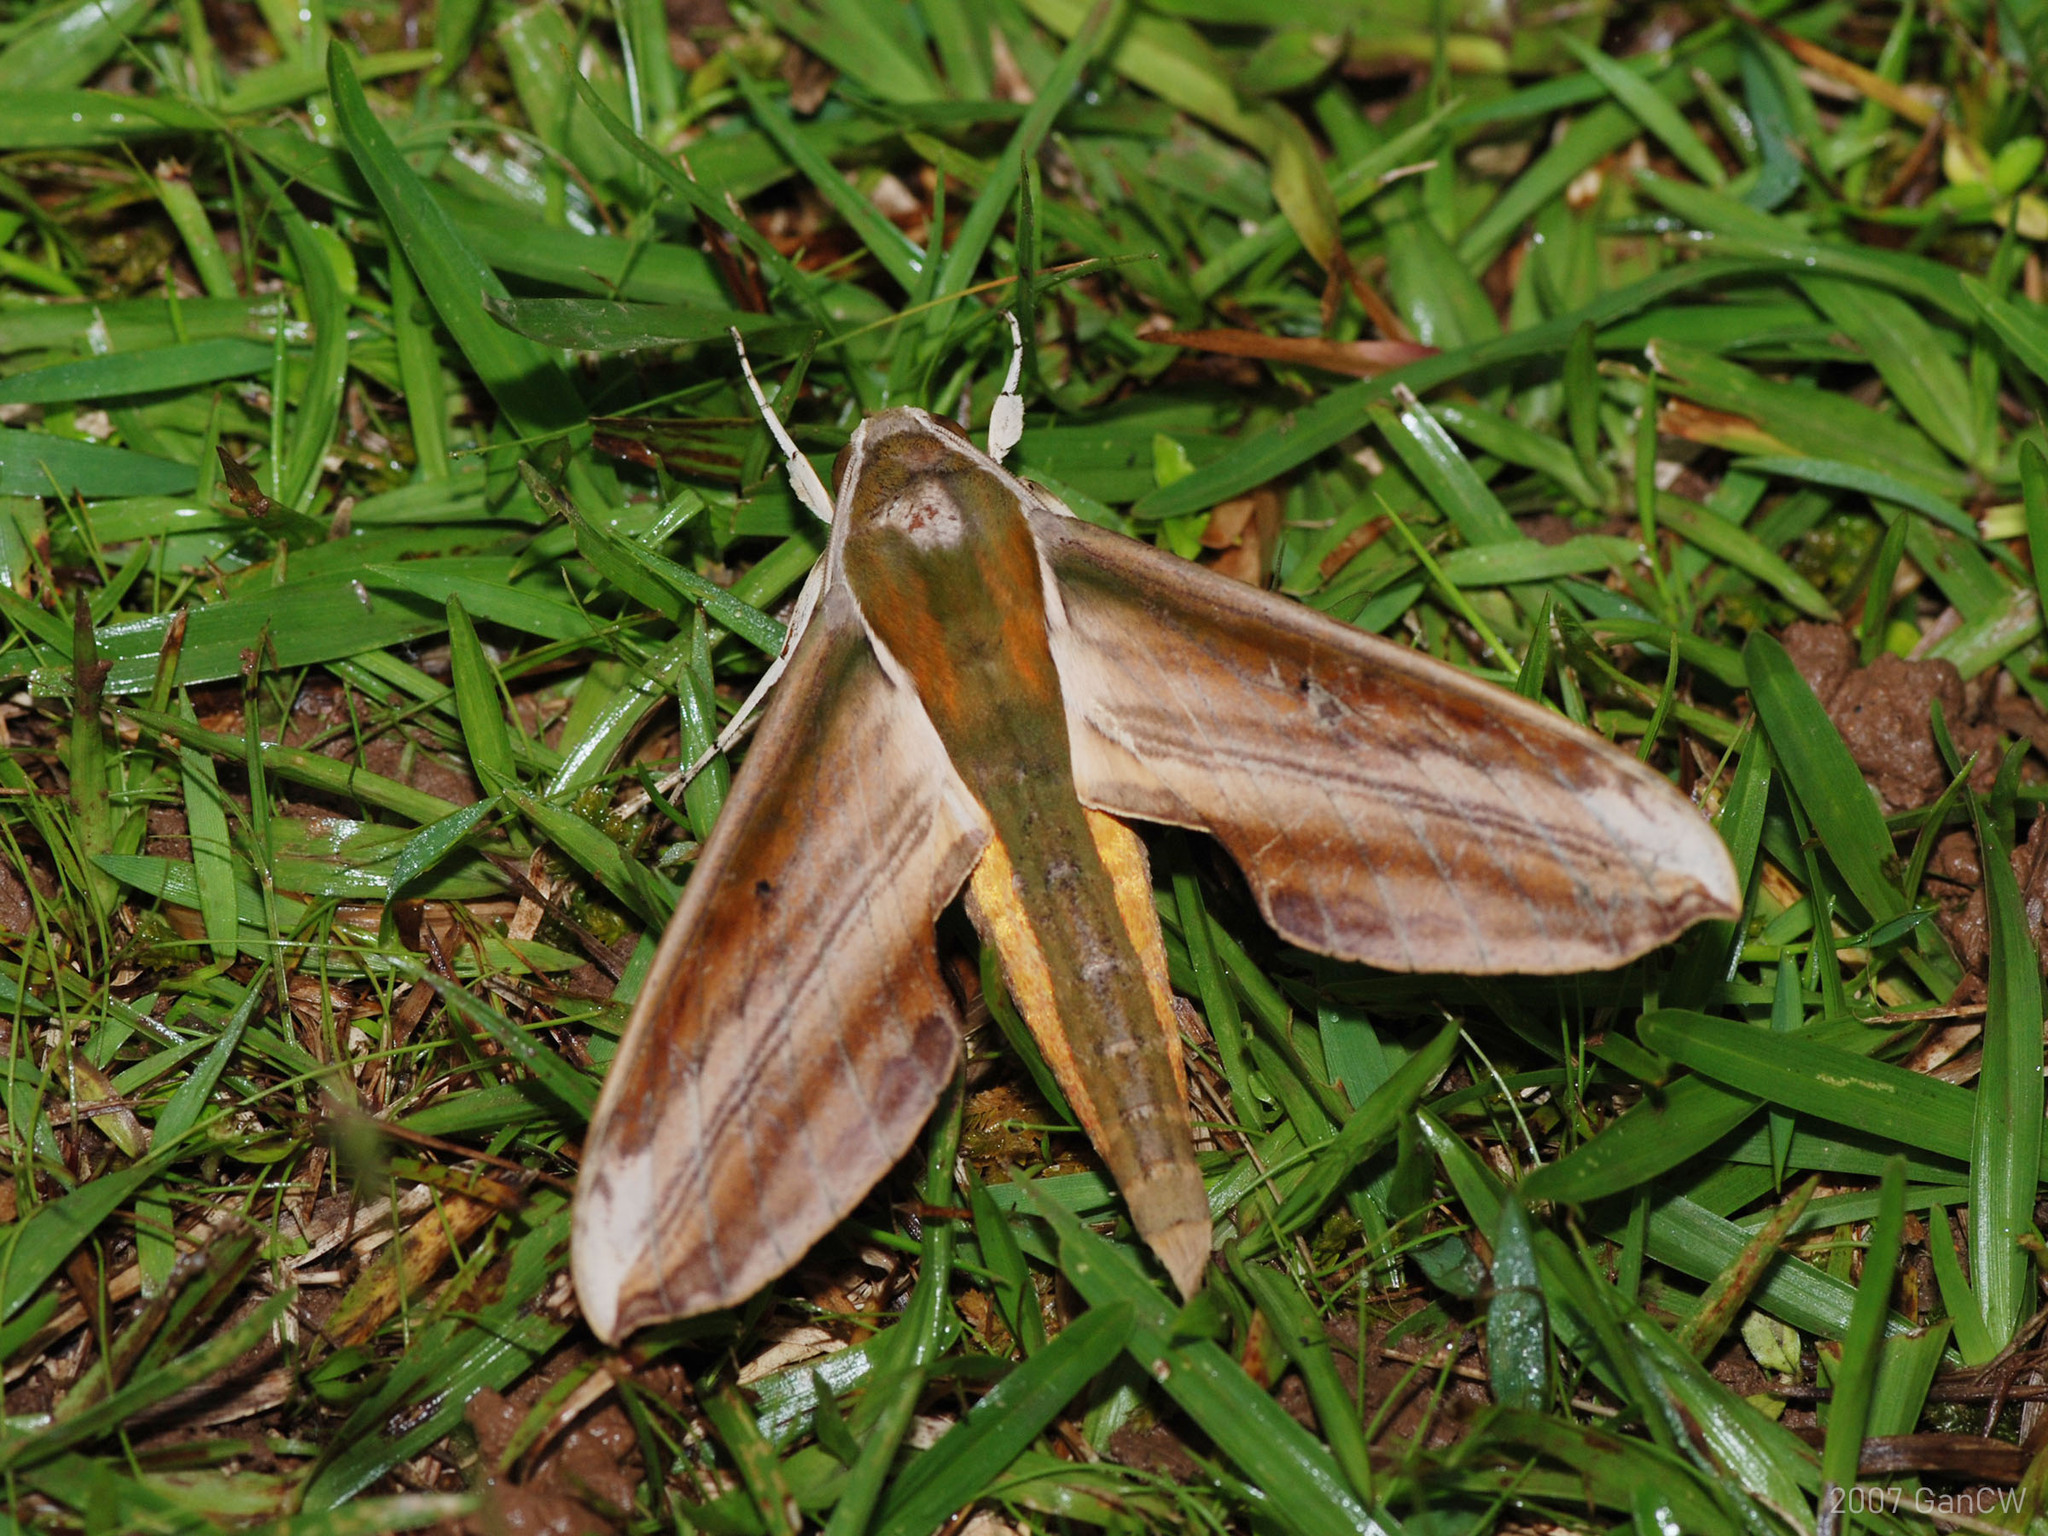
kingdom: Animalia
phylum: Arthropoda
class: Insecta
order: Lepidoptera
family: Sphingidae
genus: Theretra
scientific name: Theretra nessus
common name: Yam hawk moth
